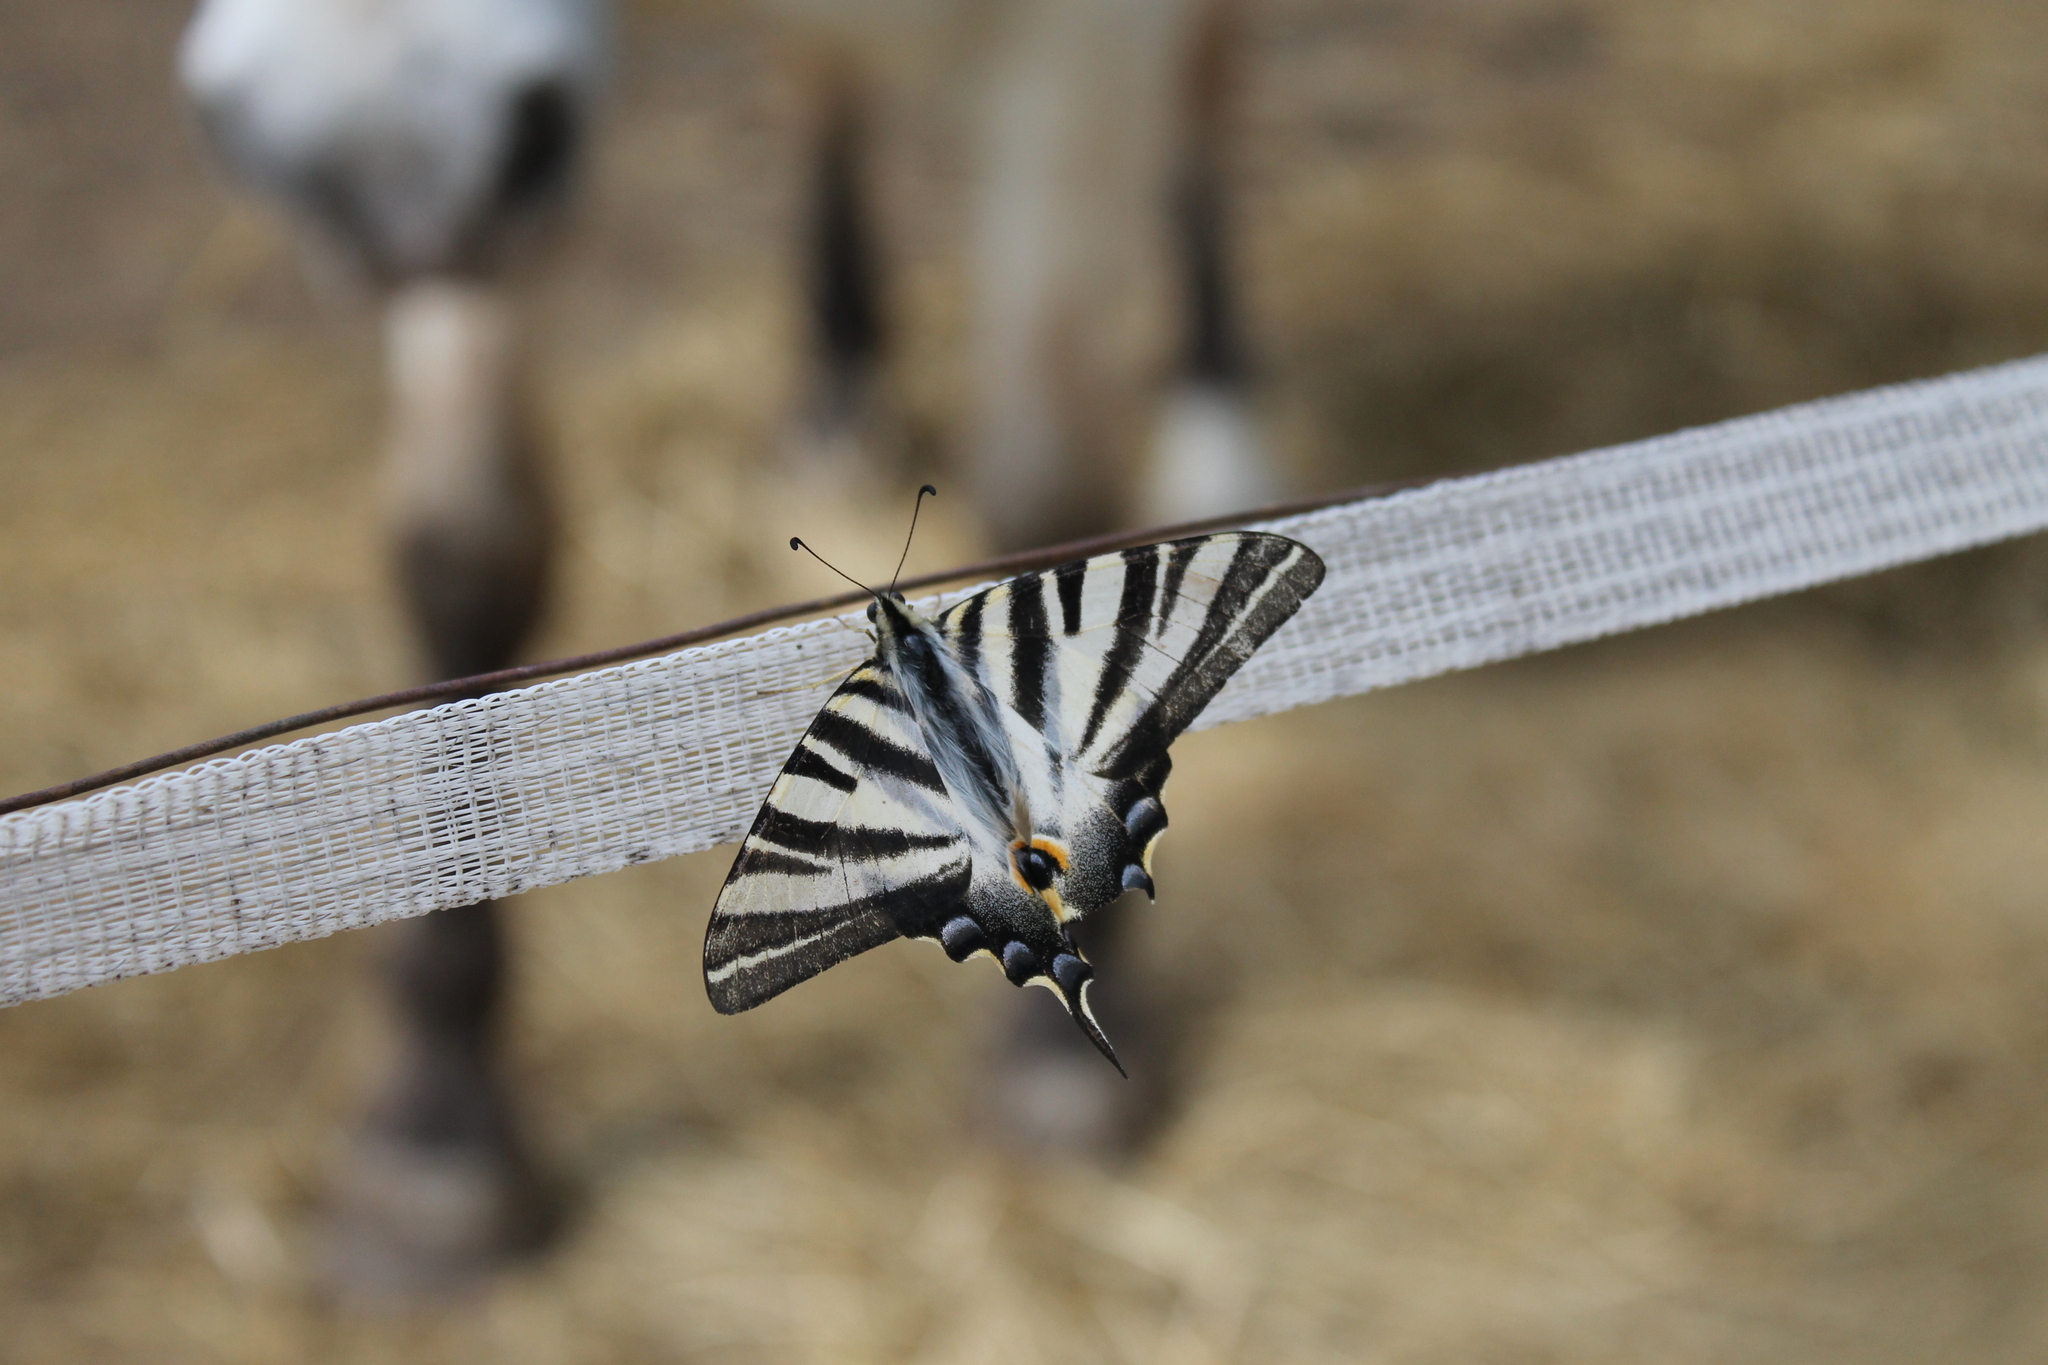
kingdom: Animalia
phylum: Arthropoda
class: Insecta
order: Lepidoptera
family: Papilionidae
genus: Iphiclides
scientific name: Iphiclides feisthamelii
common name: Iberian scarce swallowtail
